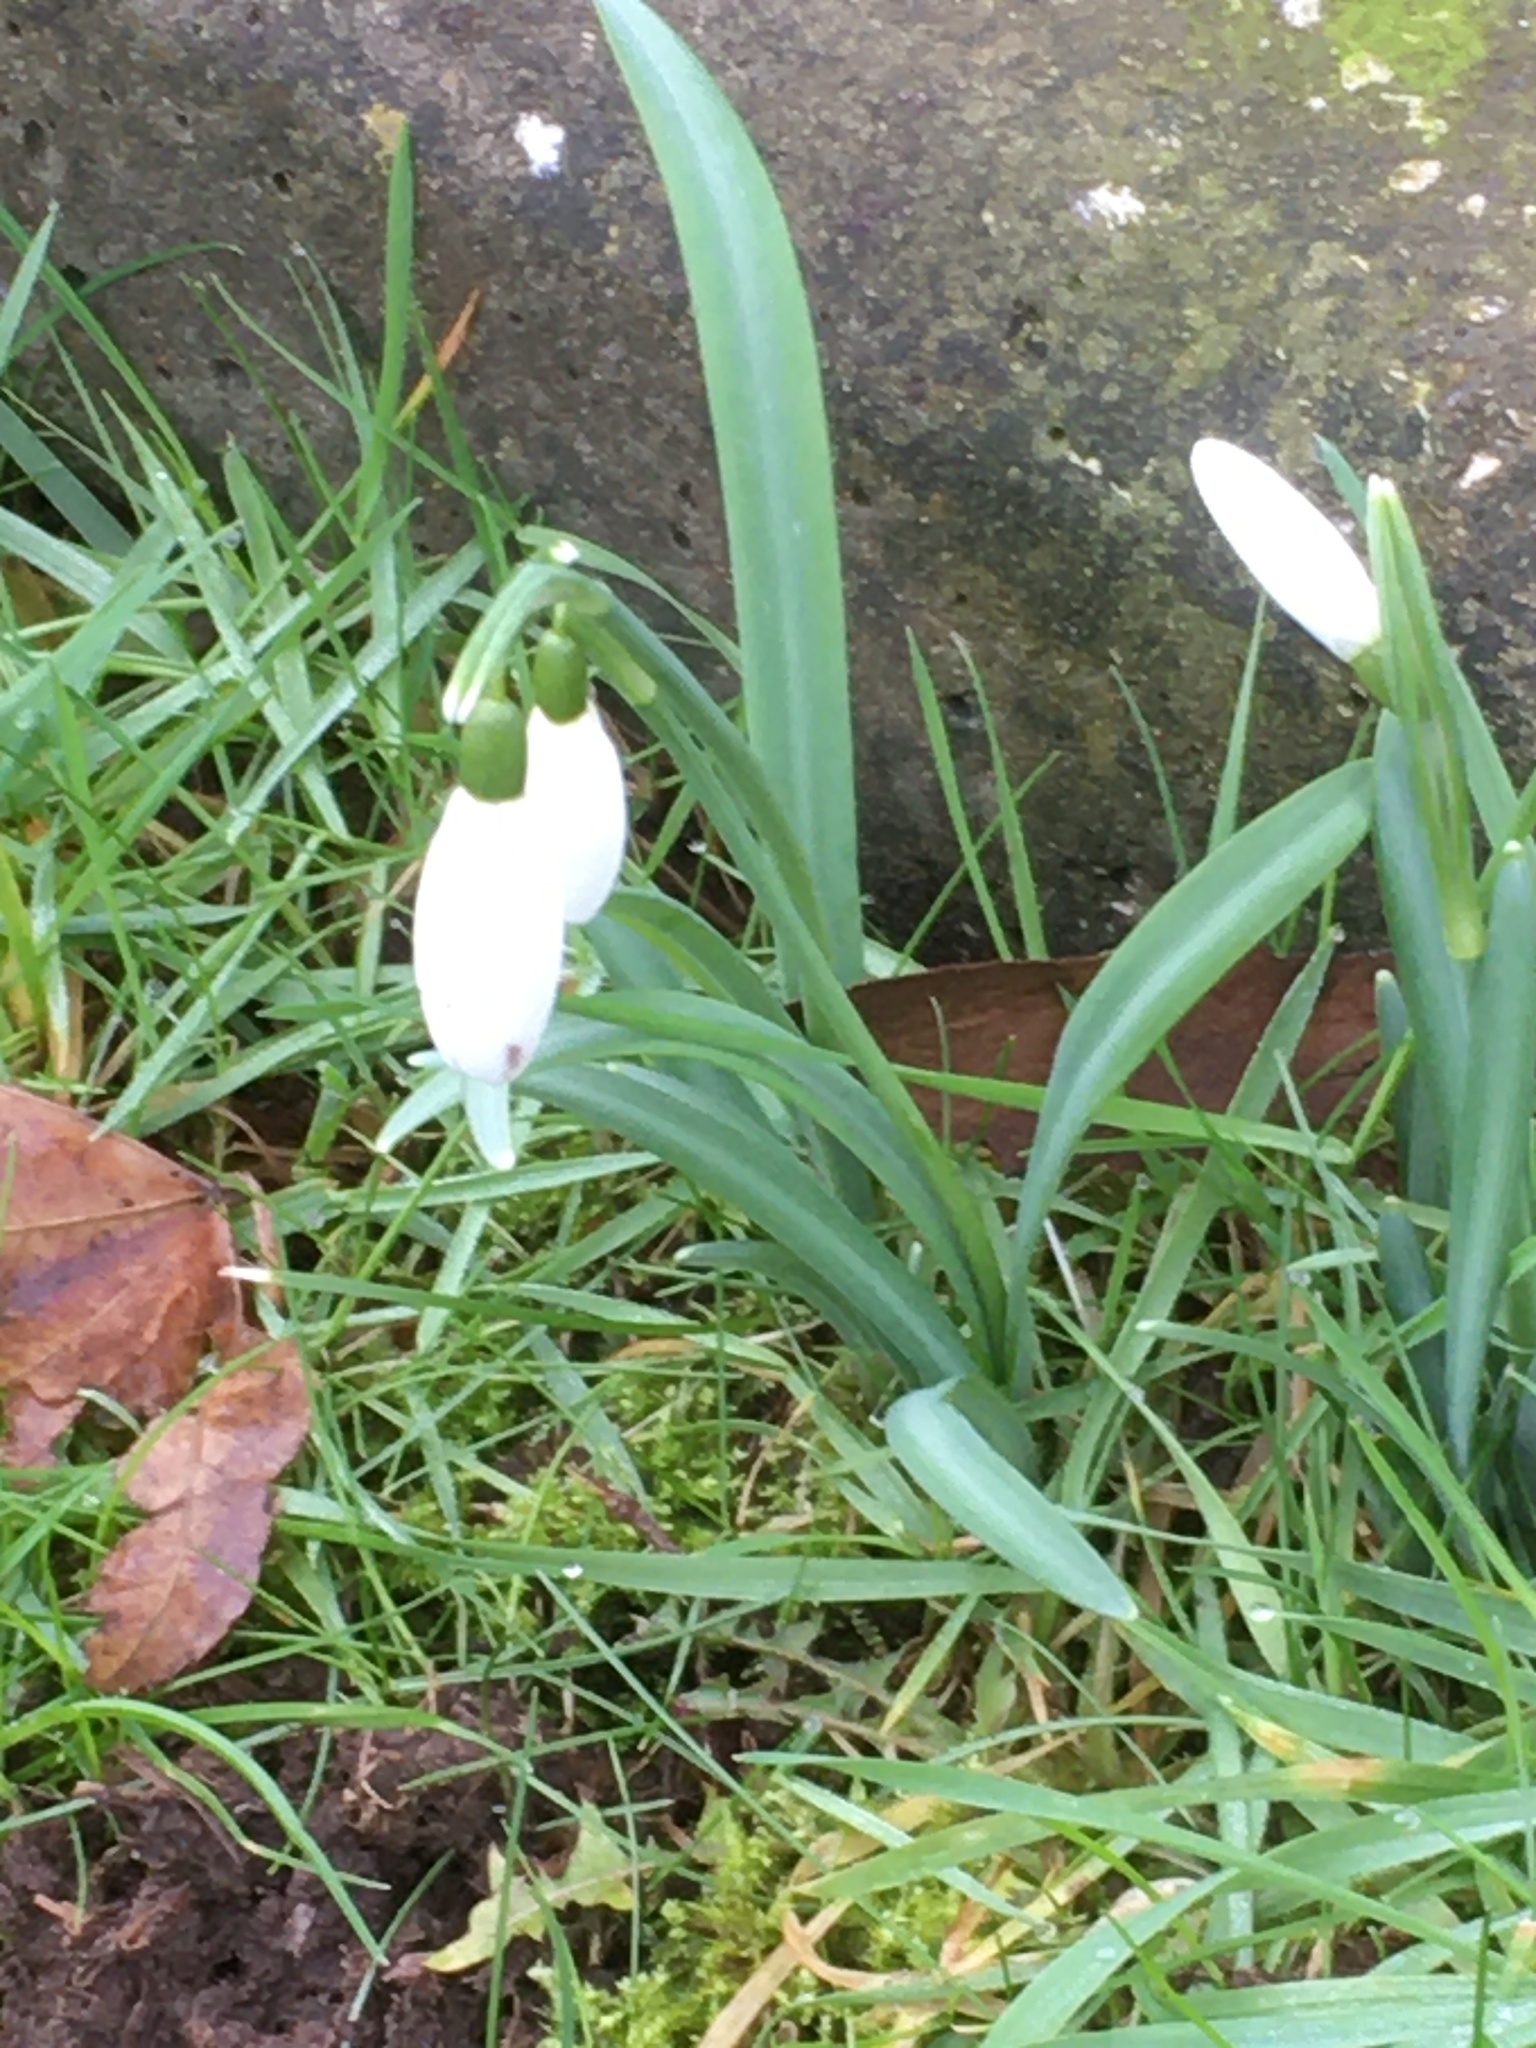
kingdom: Plantae
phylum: Tracheophyta
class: Liliopsida
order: Asparagales
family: Amaryllidaceae
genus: Galanthus
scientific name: Galanthus nivalis
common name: Snowdrop
